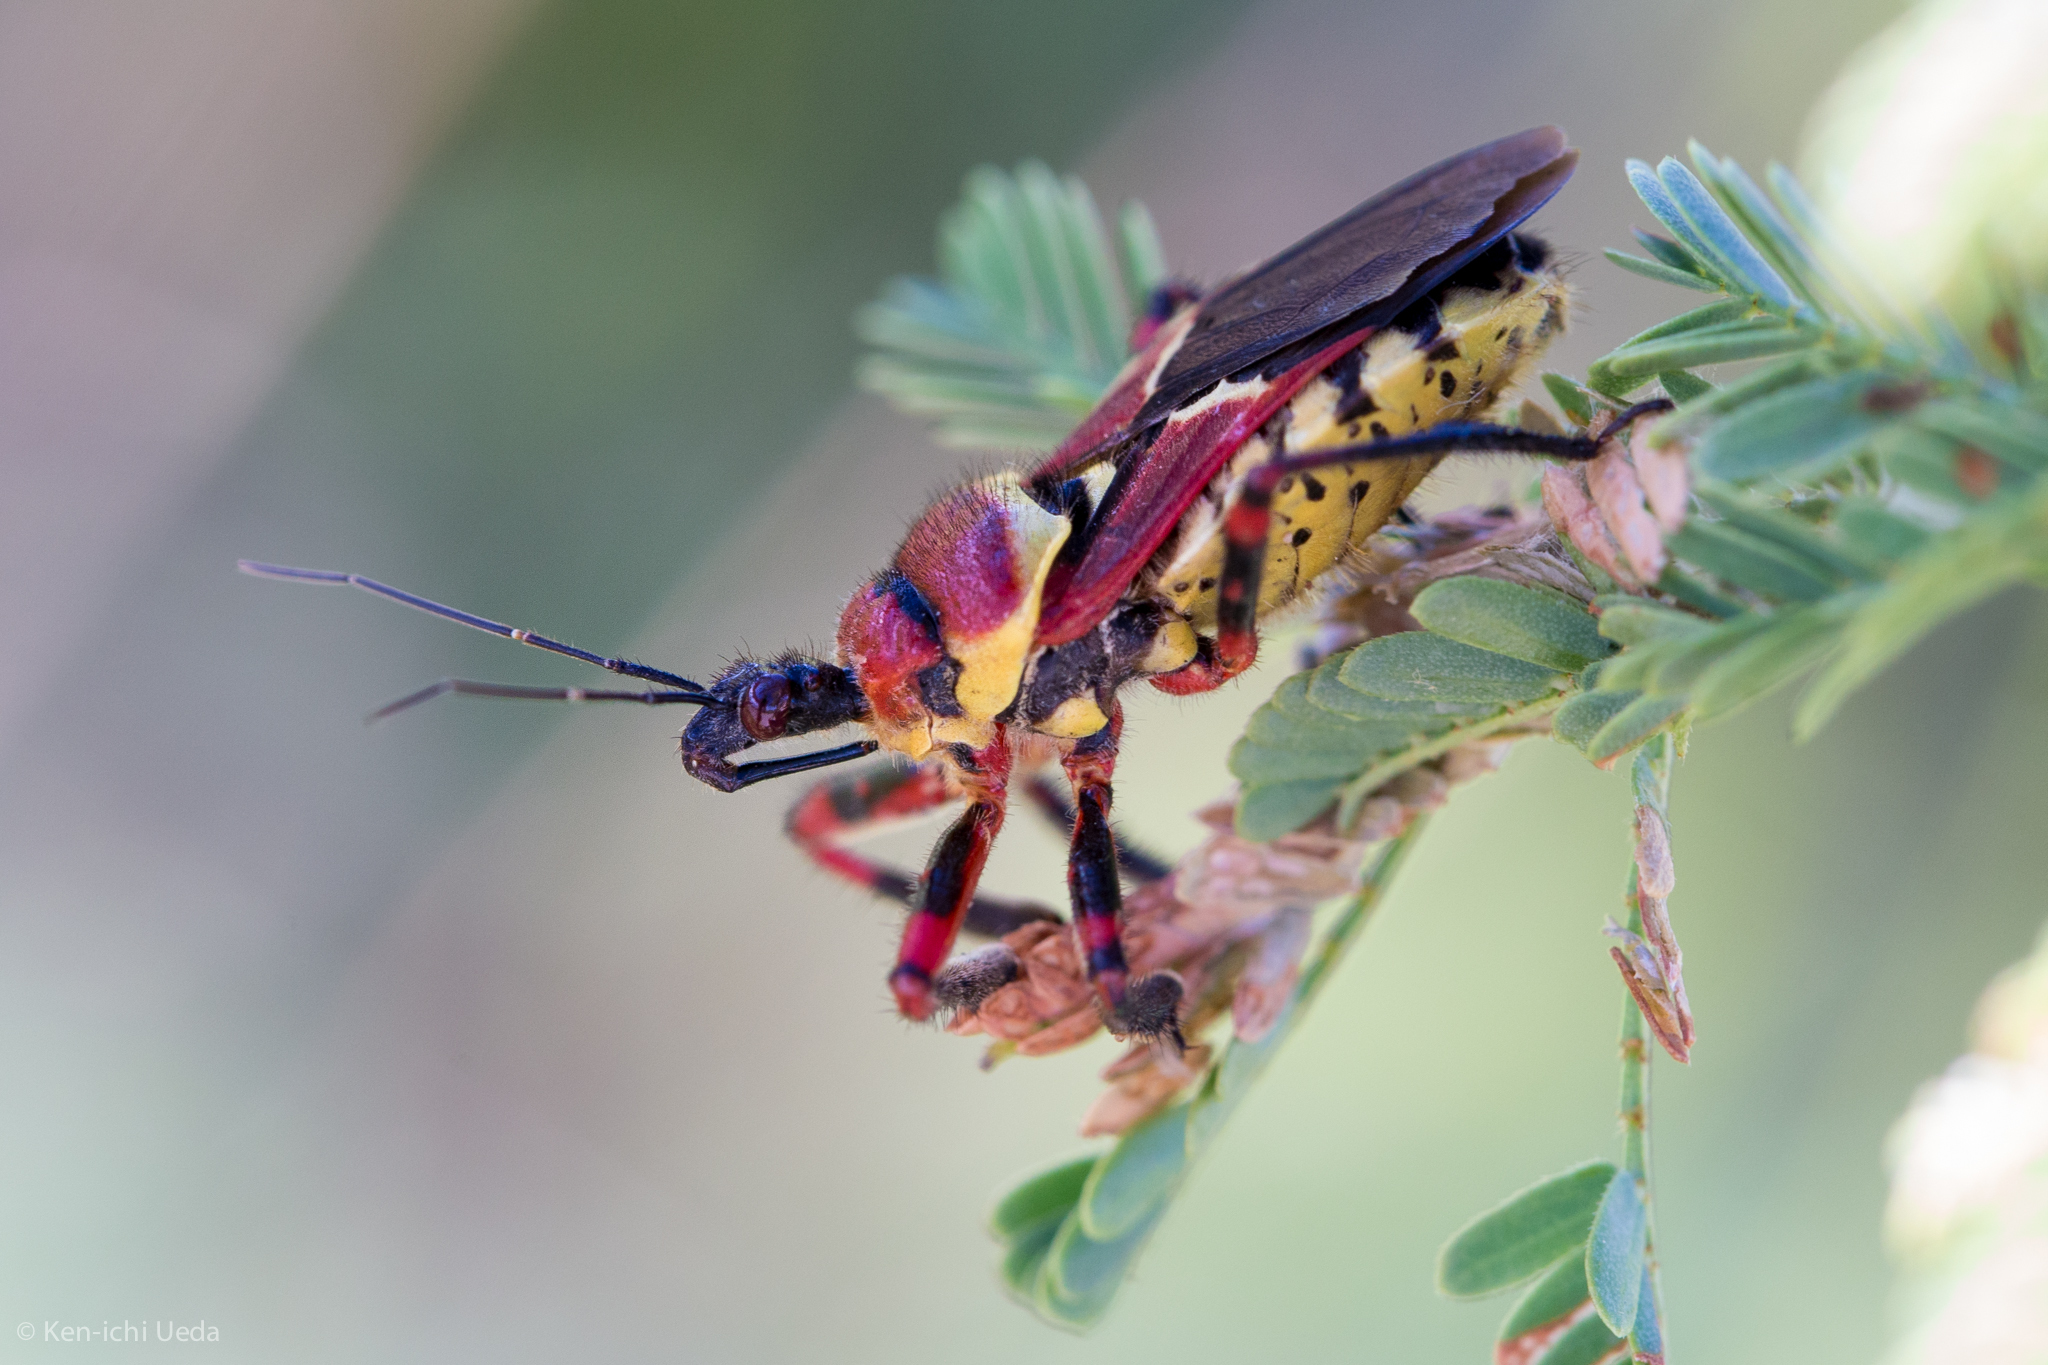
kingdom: Animalia
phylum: Arthropoda
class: Insecta
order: Hemiptera
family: Reduviidae
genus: Apiomerus
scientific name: Apiomerus flaviventris
